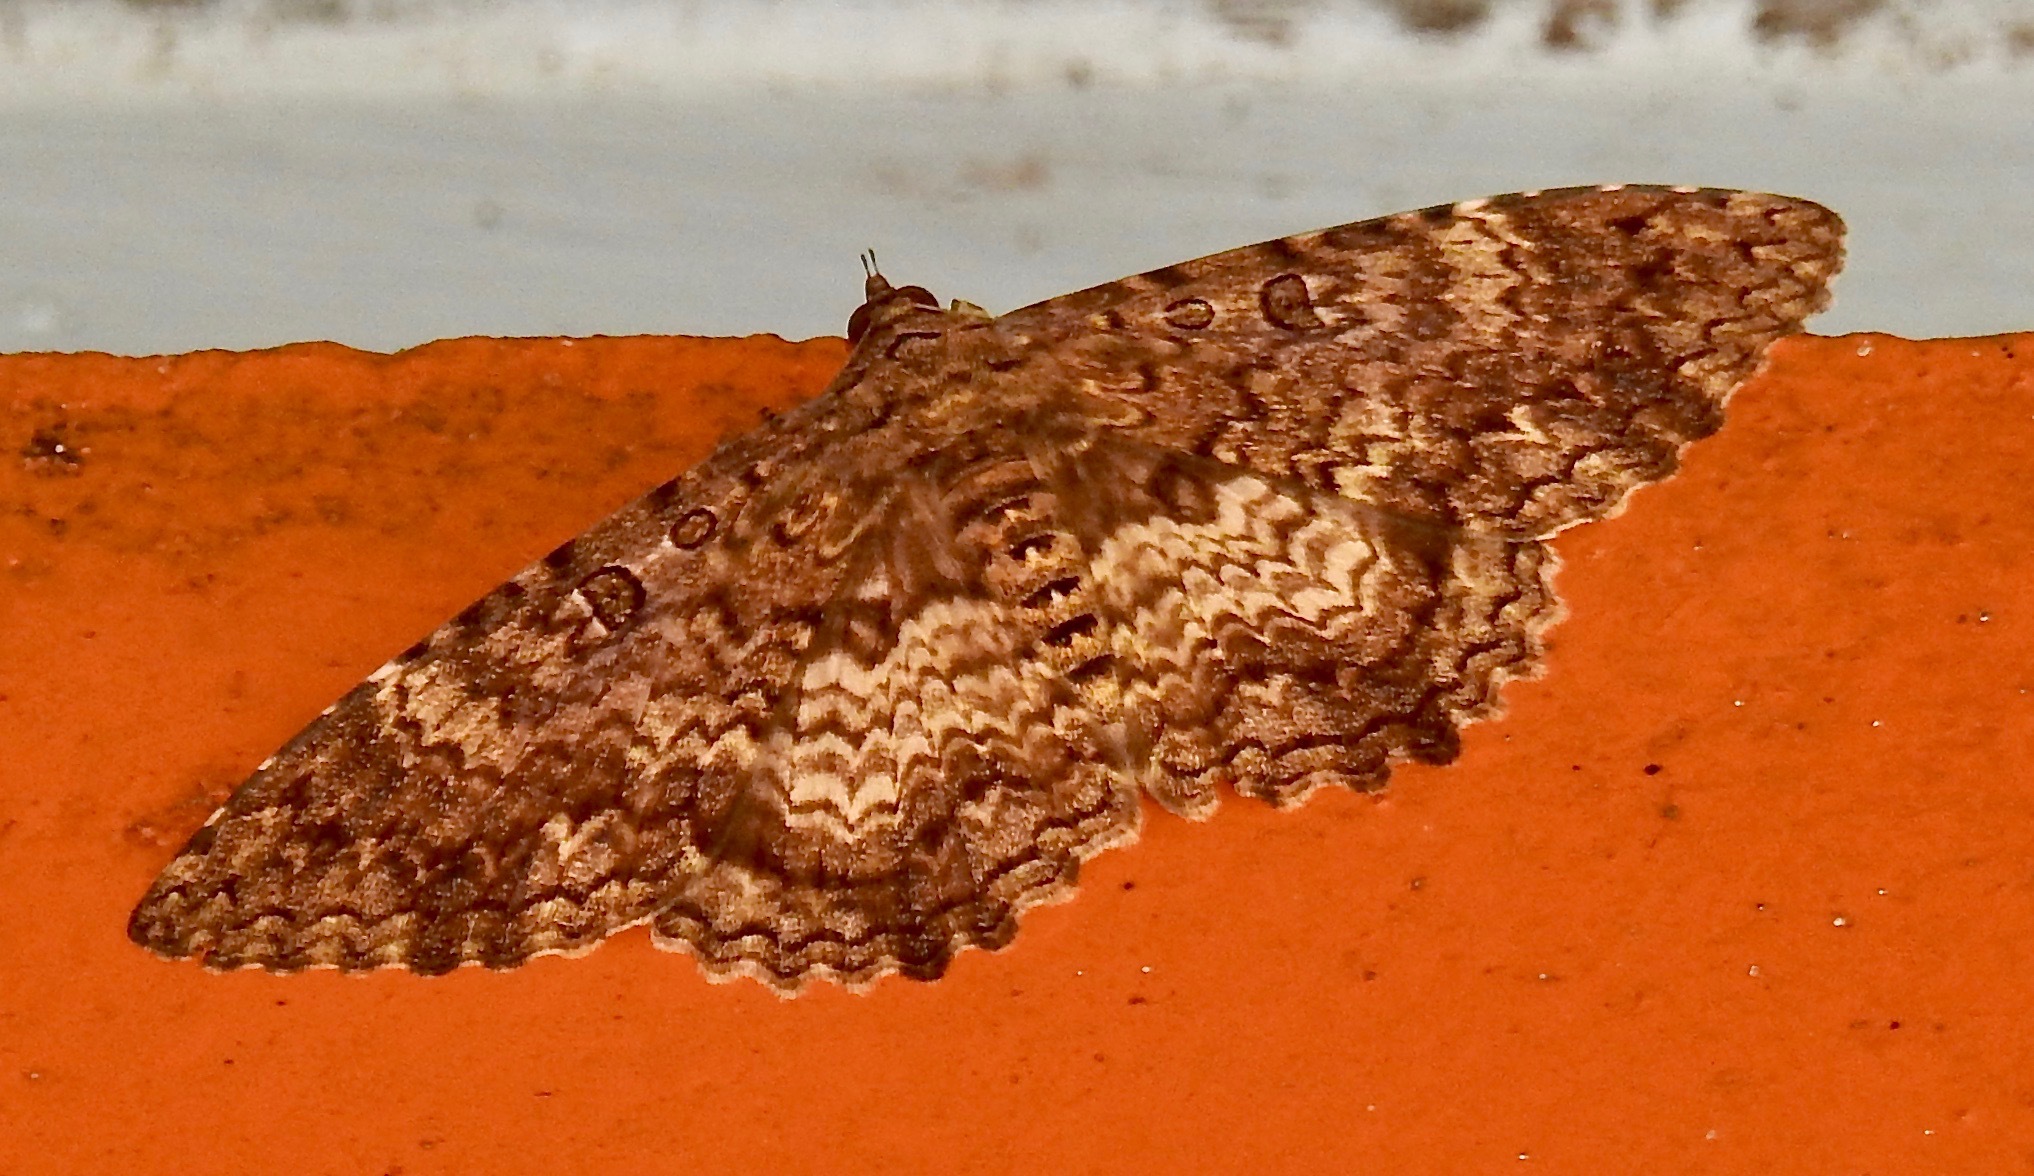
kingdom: Animalia
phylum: Arthropoda
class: Insecta
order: Lepidoptera
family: Erebidae
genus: Feigeria
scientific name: Feigeria scops
